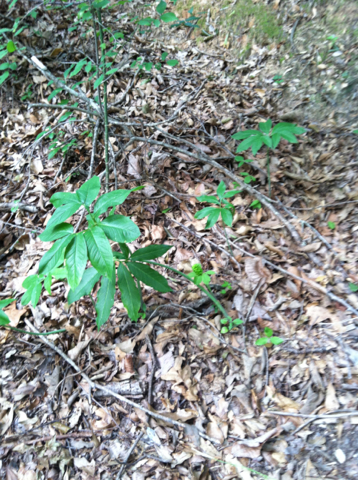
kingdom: Plantae
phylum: Tracheophyta
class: Liliopsida
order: Alismatales
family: Araceae
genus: Arisaema
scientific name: Arisaema dracontium
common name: Dragon-arum
